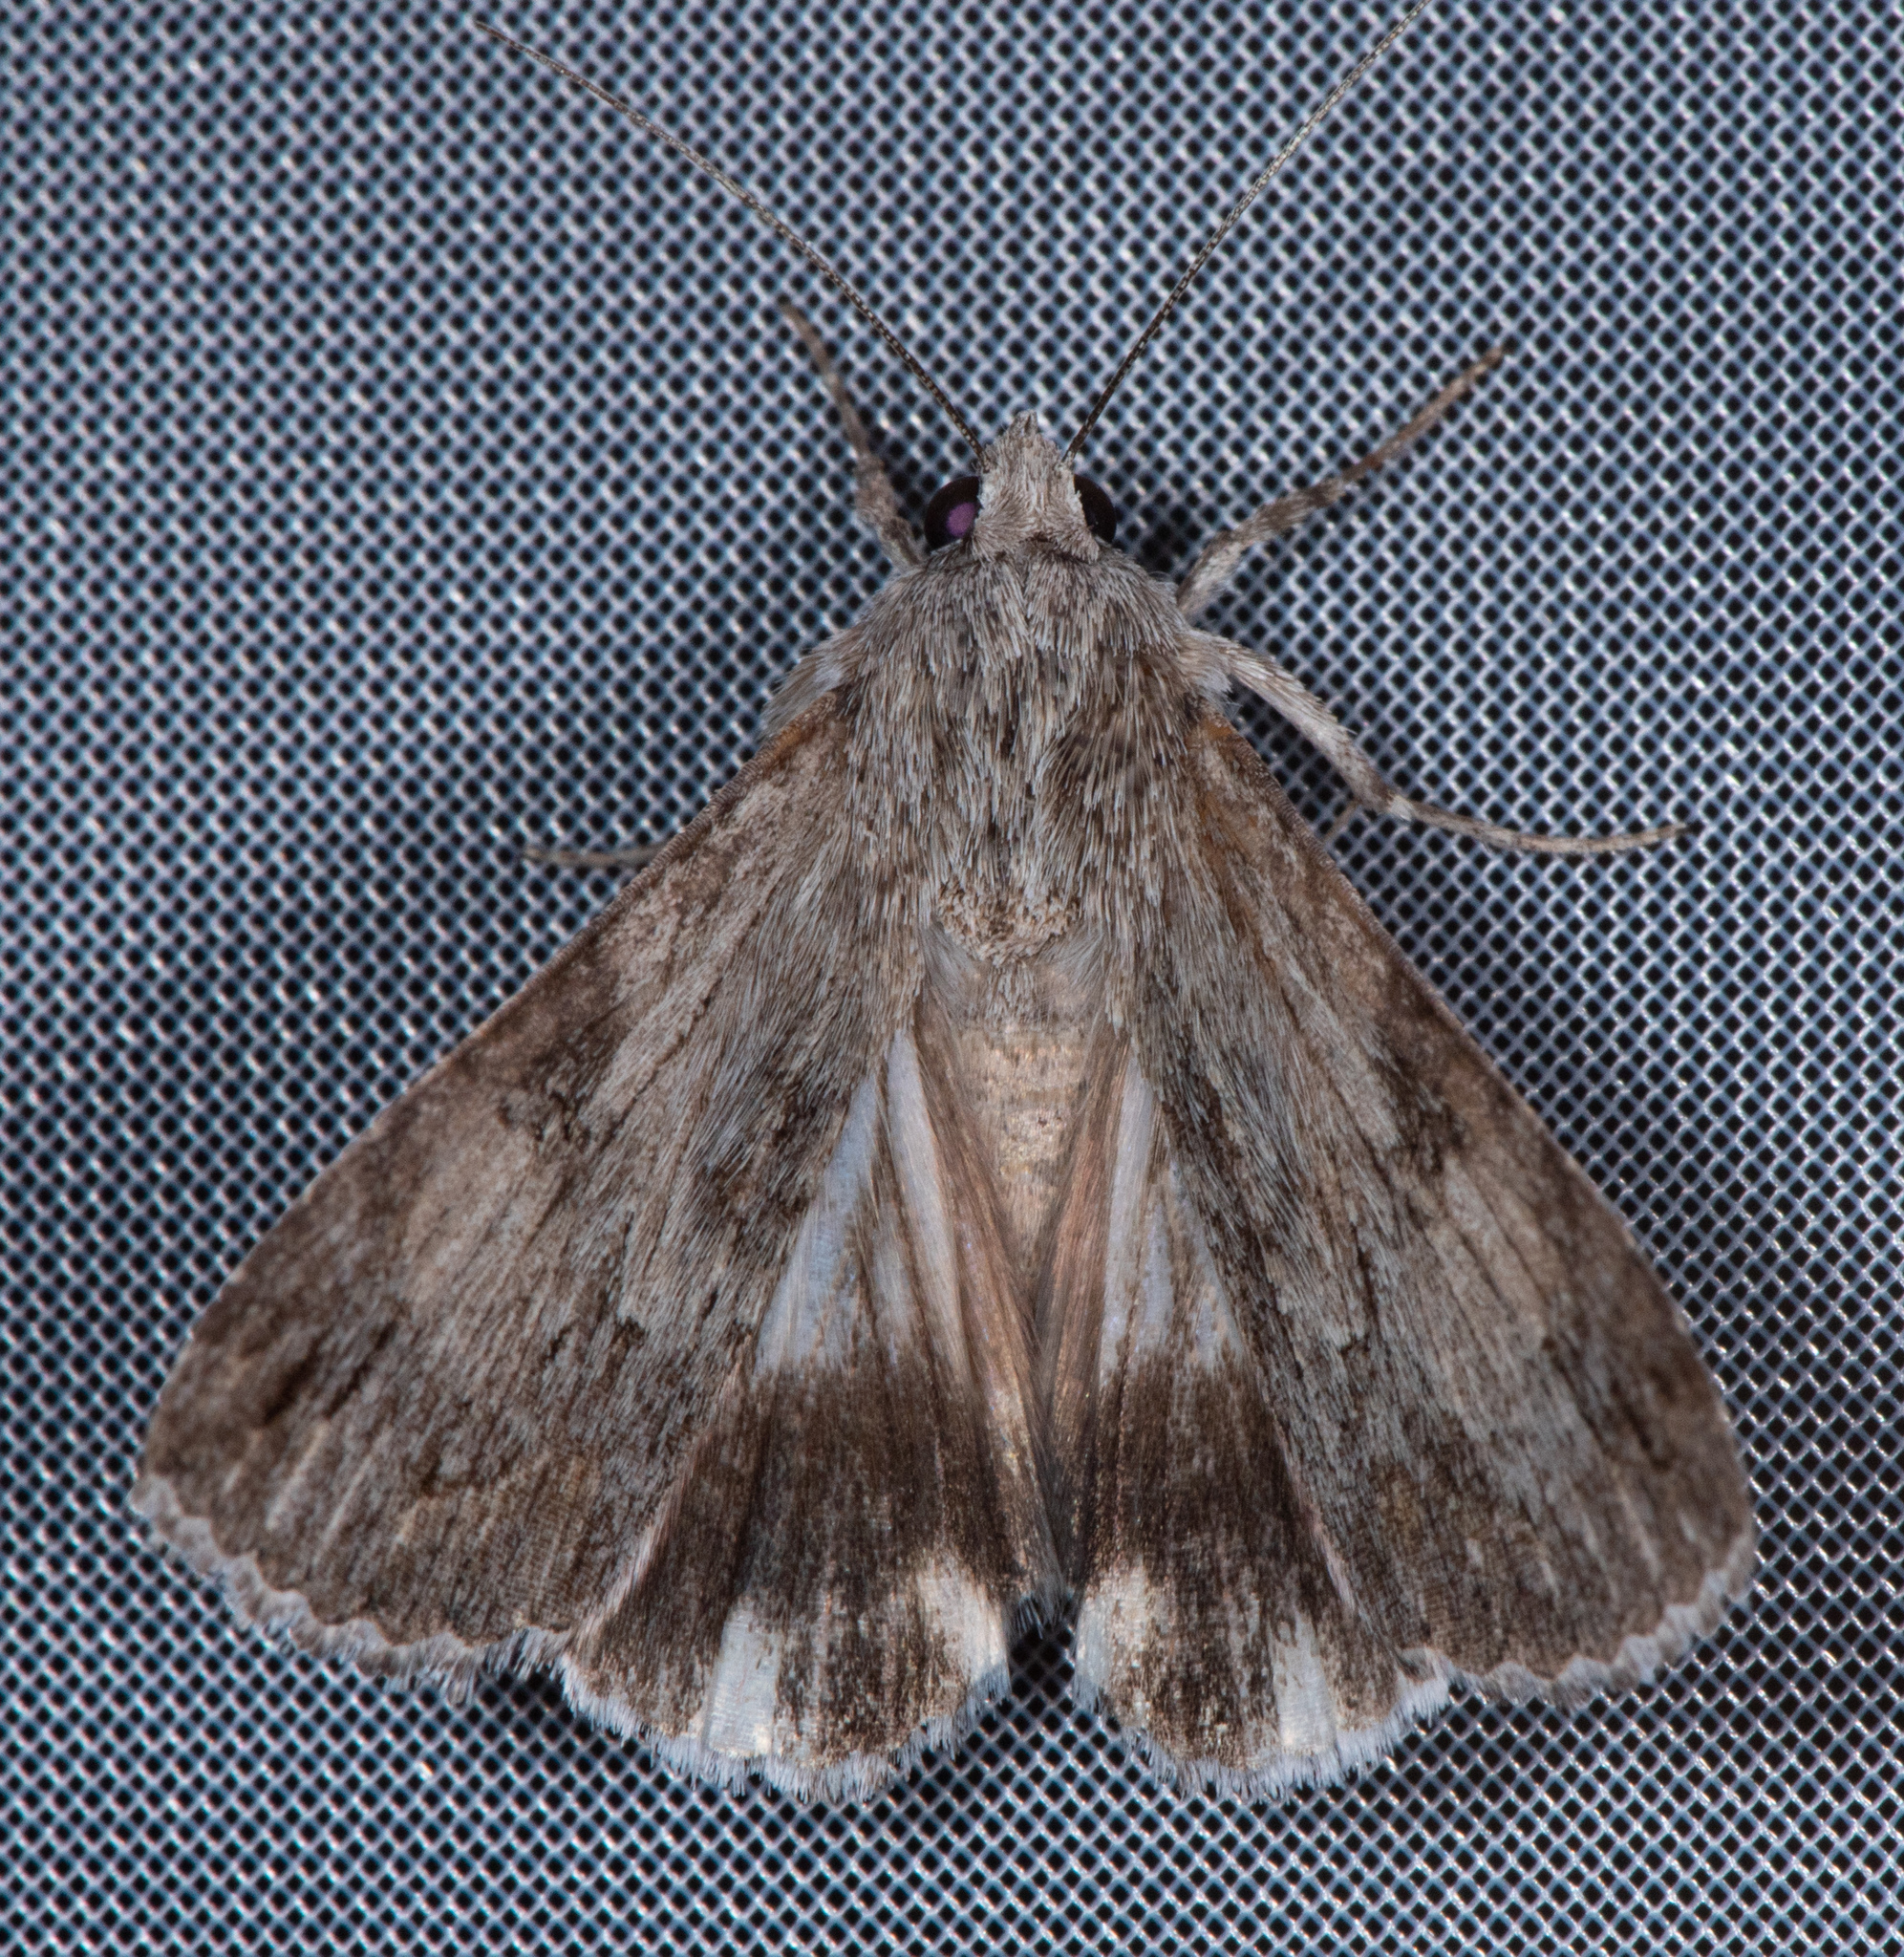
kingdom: Animalia
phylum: Arthropoda
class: Insecta
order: Lepidoptera
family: Erebidae
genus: Melipotis
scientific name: Melipotis jucunda
